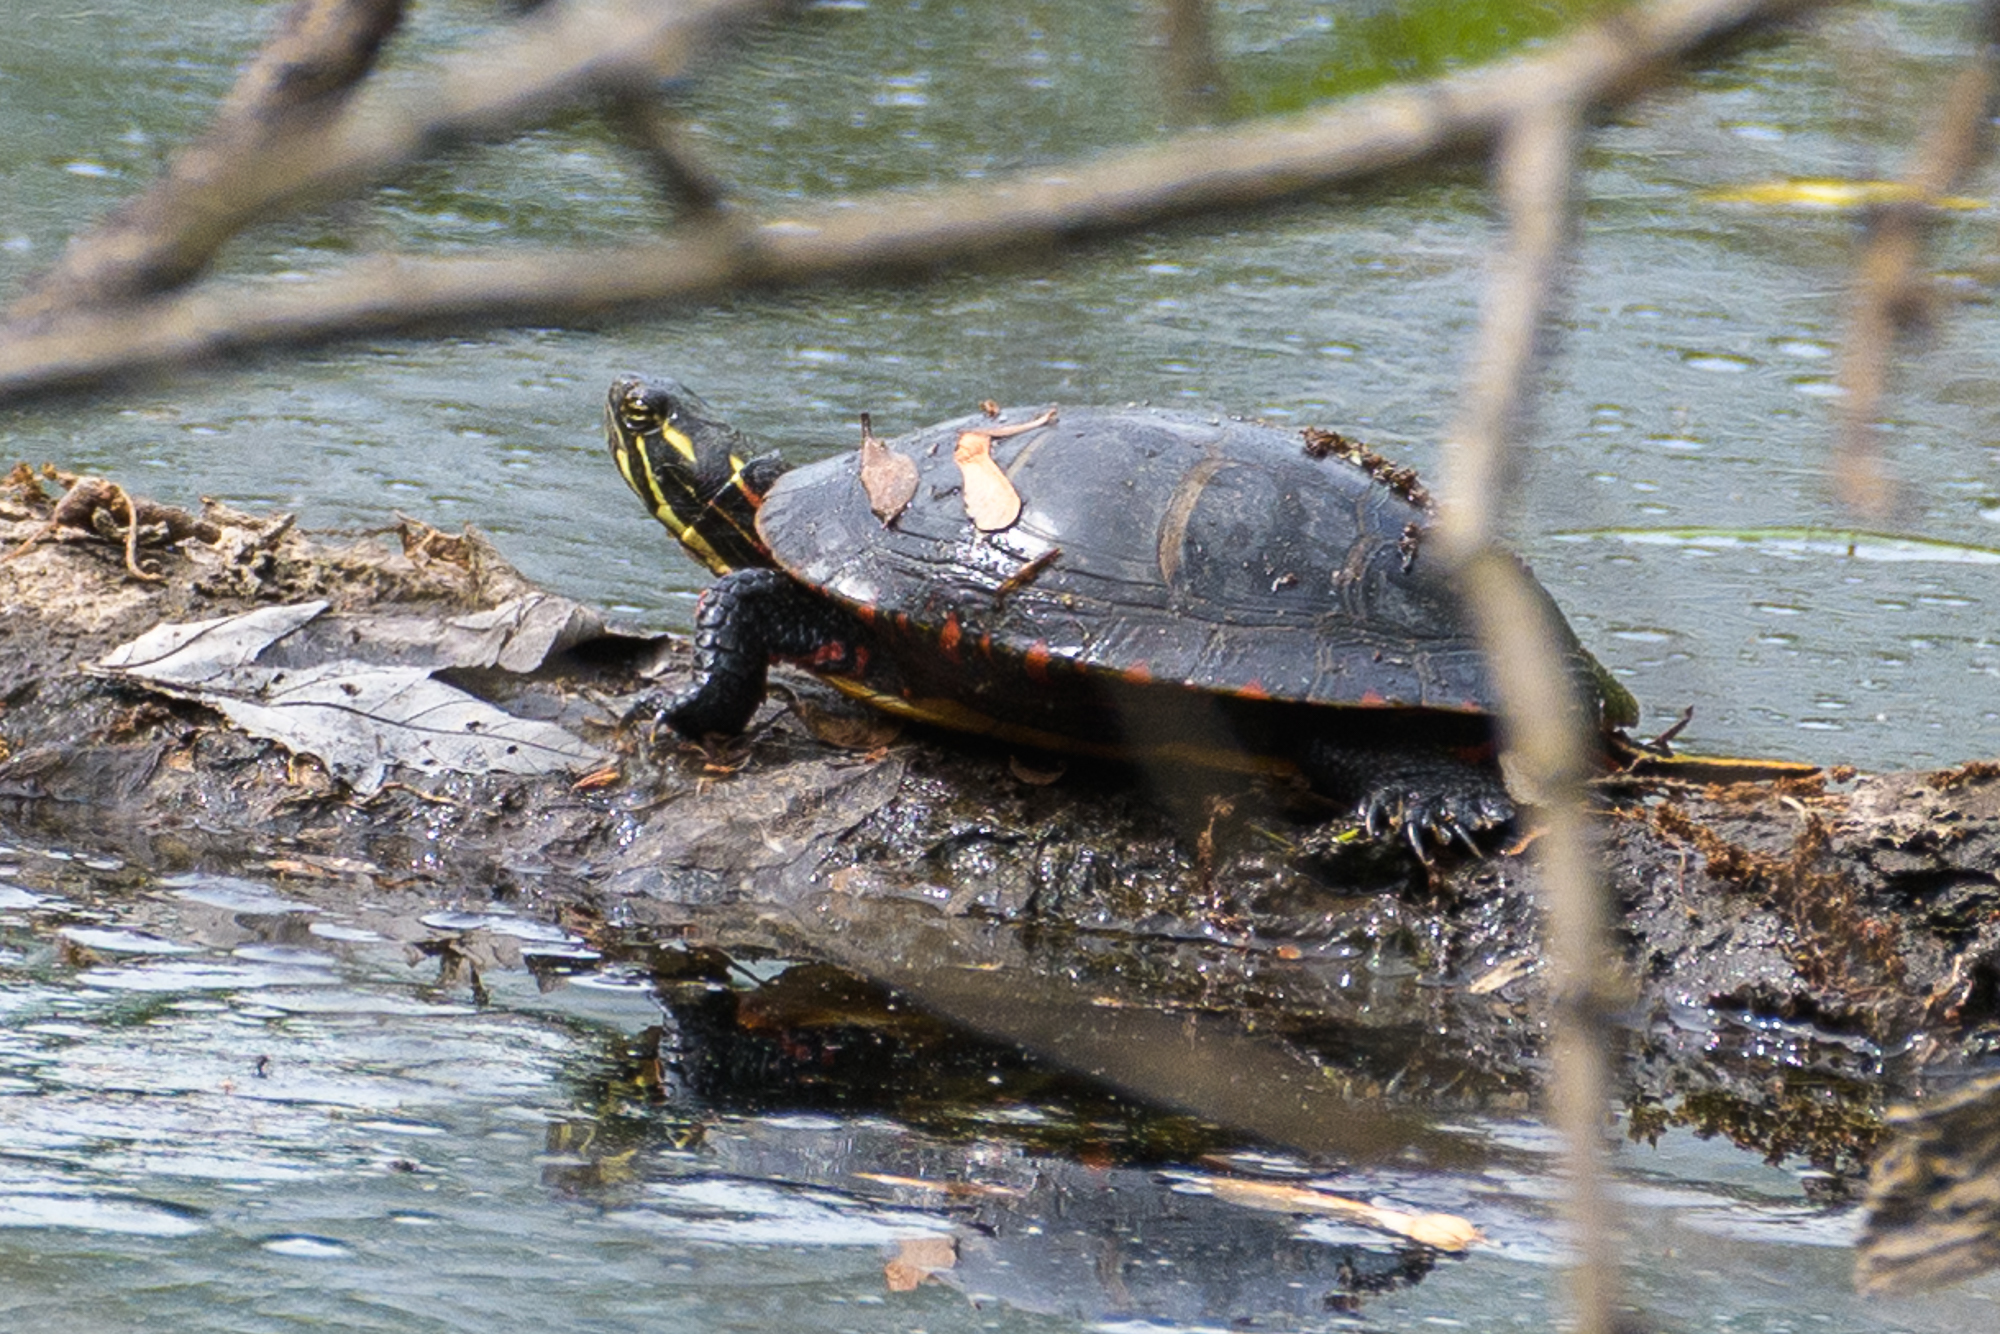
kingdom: Animalia
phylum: Chordata
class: Testudines
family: Emydidae
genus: Chrysemys
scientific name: Chrysemys picta
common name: Painted turtle
